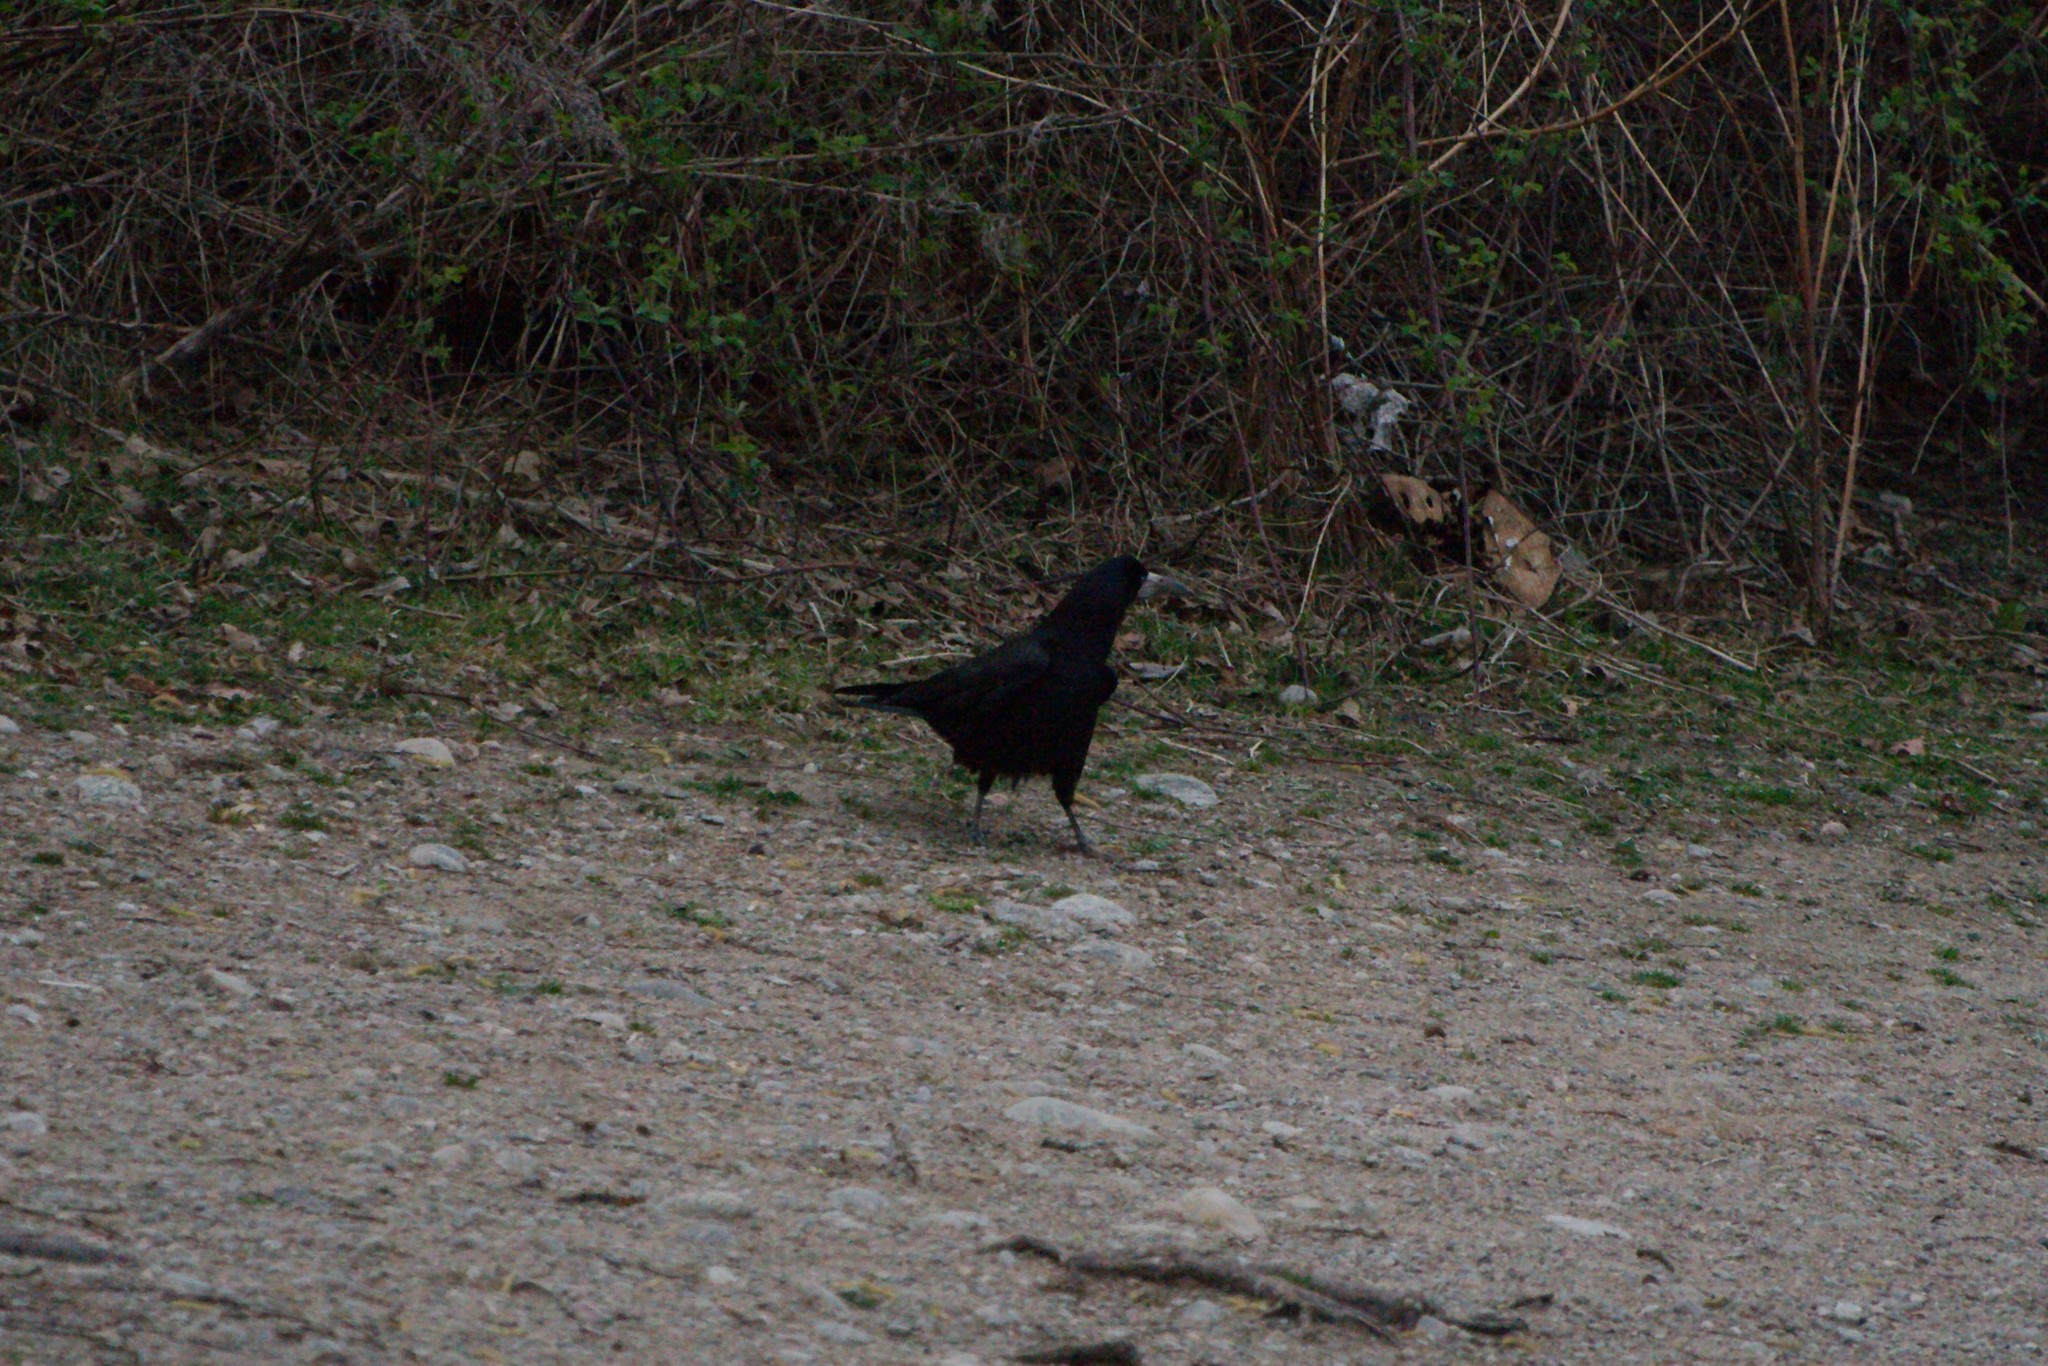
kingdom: Animalia
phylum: Chordata
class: Aves
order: Passeriformes
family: Corvidae
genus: Corvus
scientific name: Corvus frugilegus
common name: Rook
